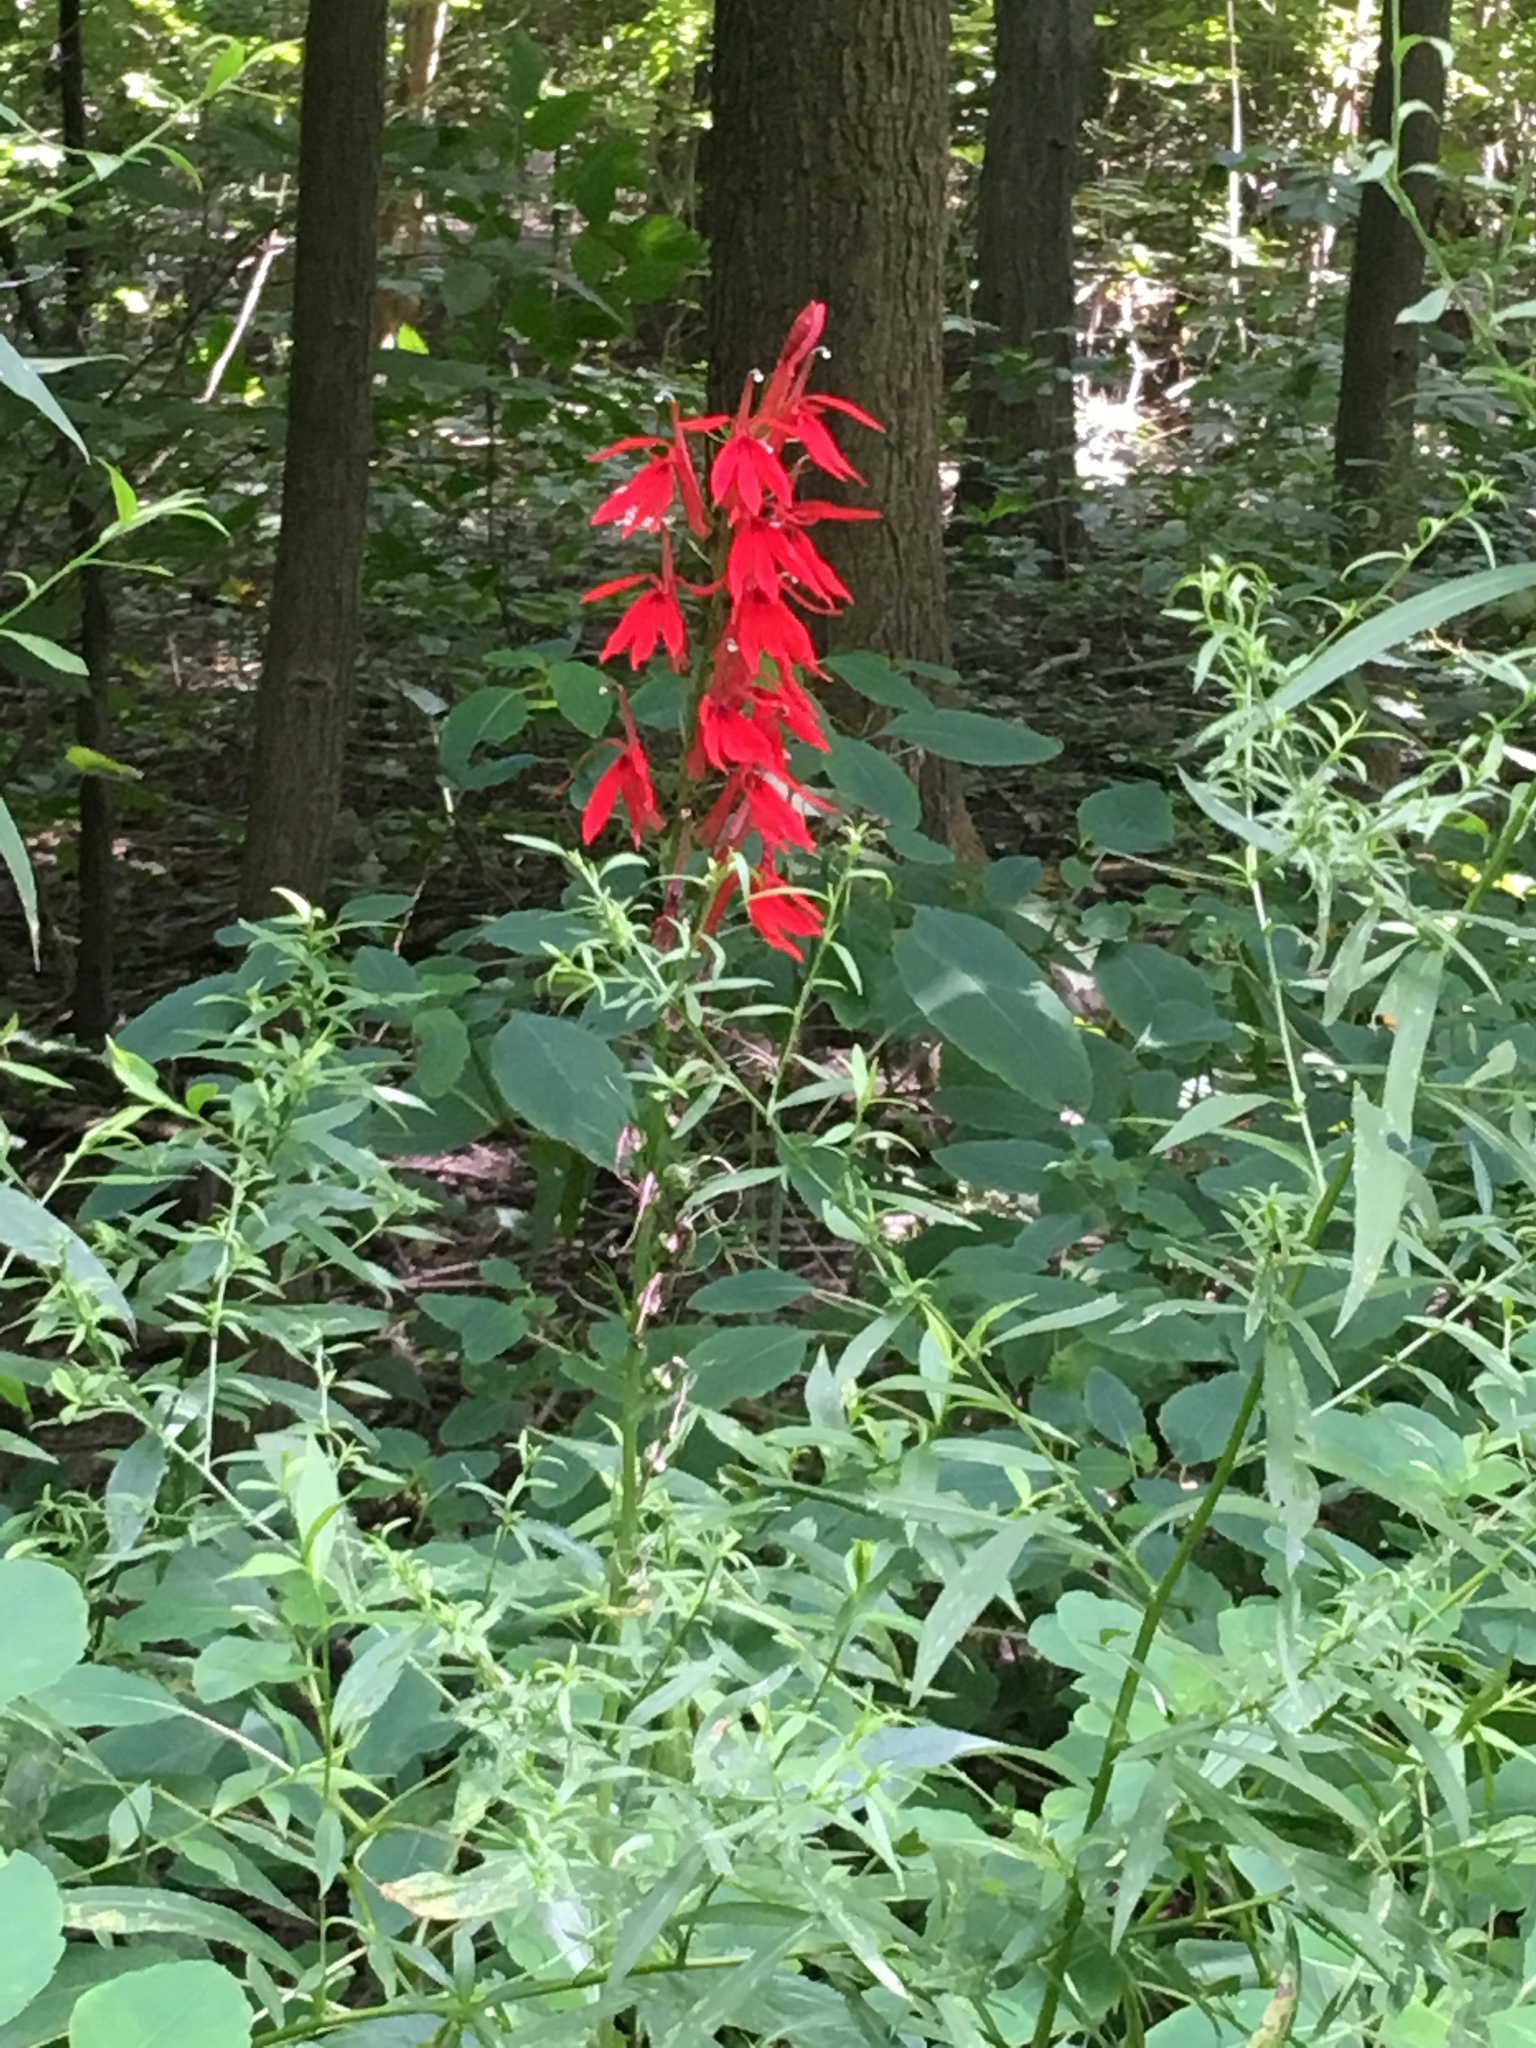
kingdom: Plantae
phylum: Tracheophyta
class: Magnoliopsida
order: Asterales
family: Campanulaceae
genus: Lobelia
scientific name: Lobelia cardinalis
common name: Cardinal flower
